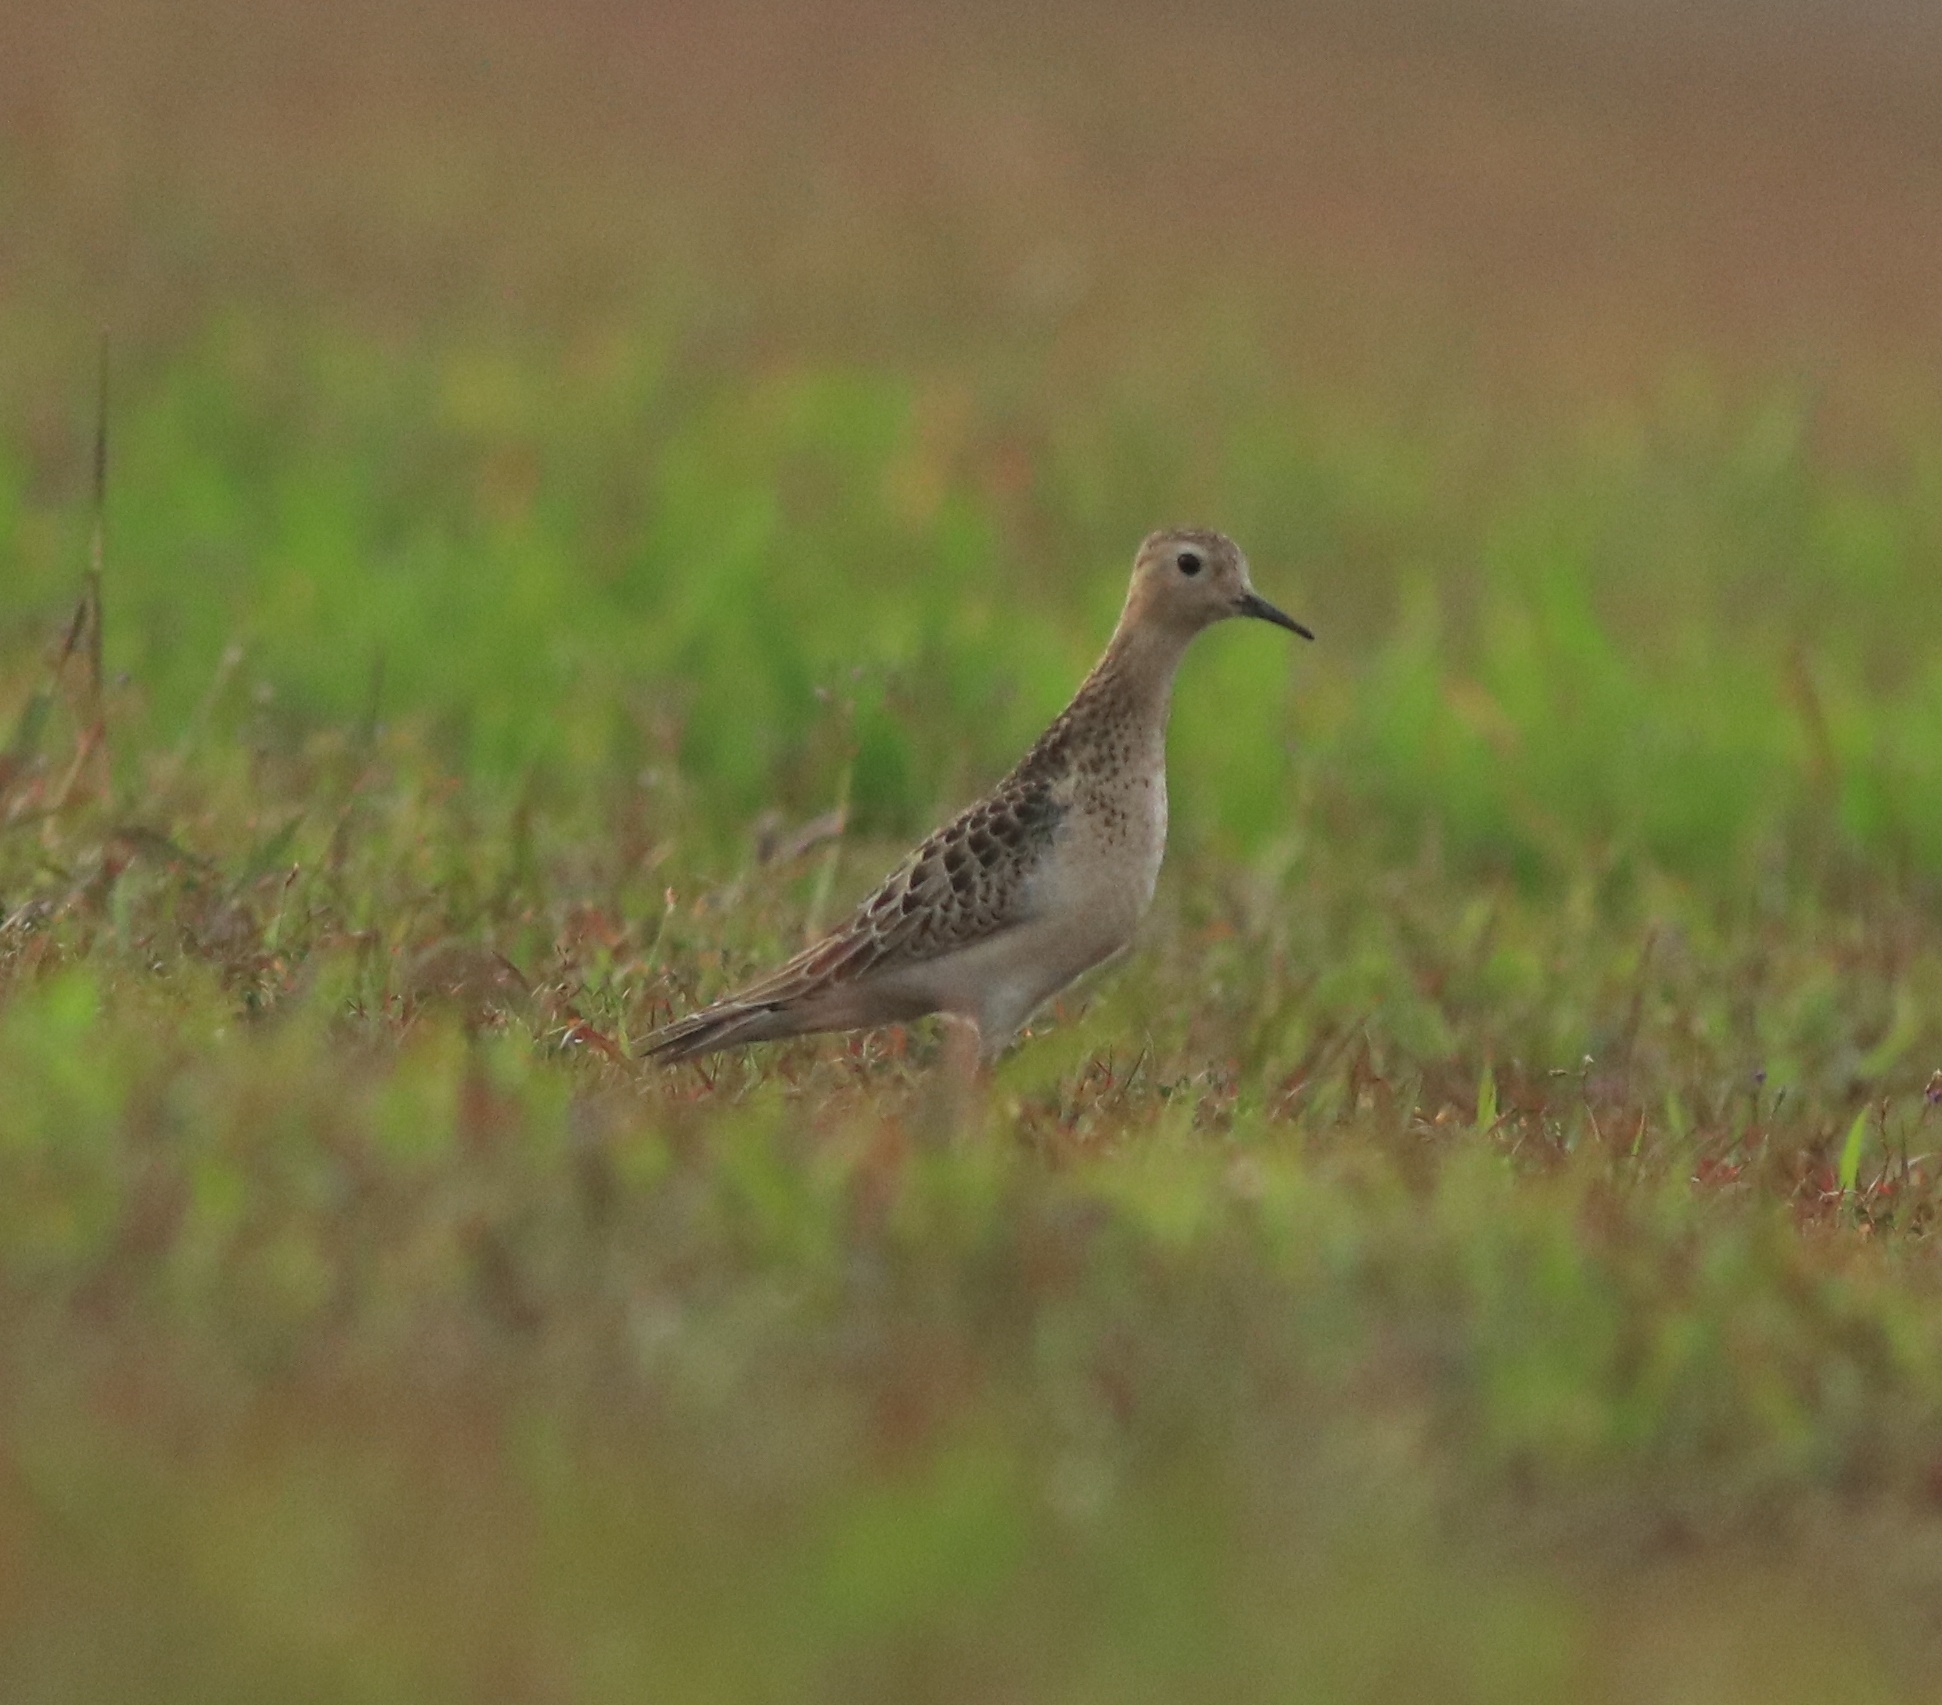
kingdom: Animalia
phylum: Chordata
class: Aves
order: Charadriiformes
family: Scolopacidae
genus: Calidris
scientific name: Calidris subruficollis
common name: Buff-breasted sandpiper
